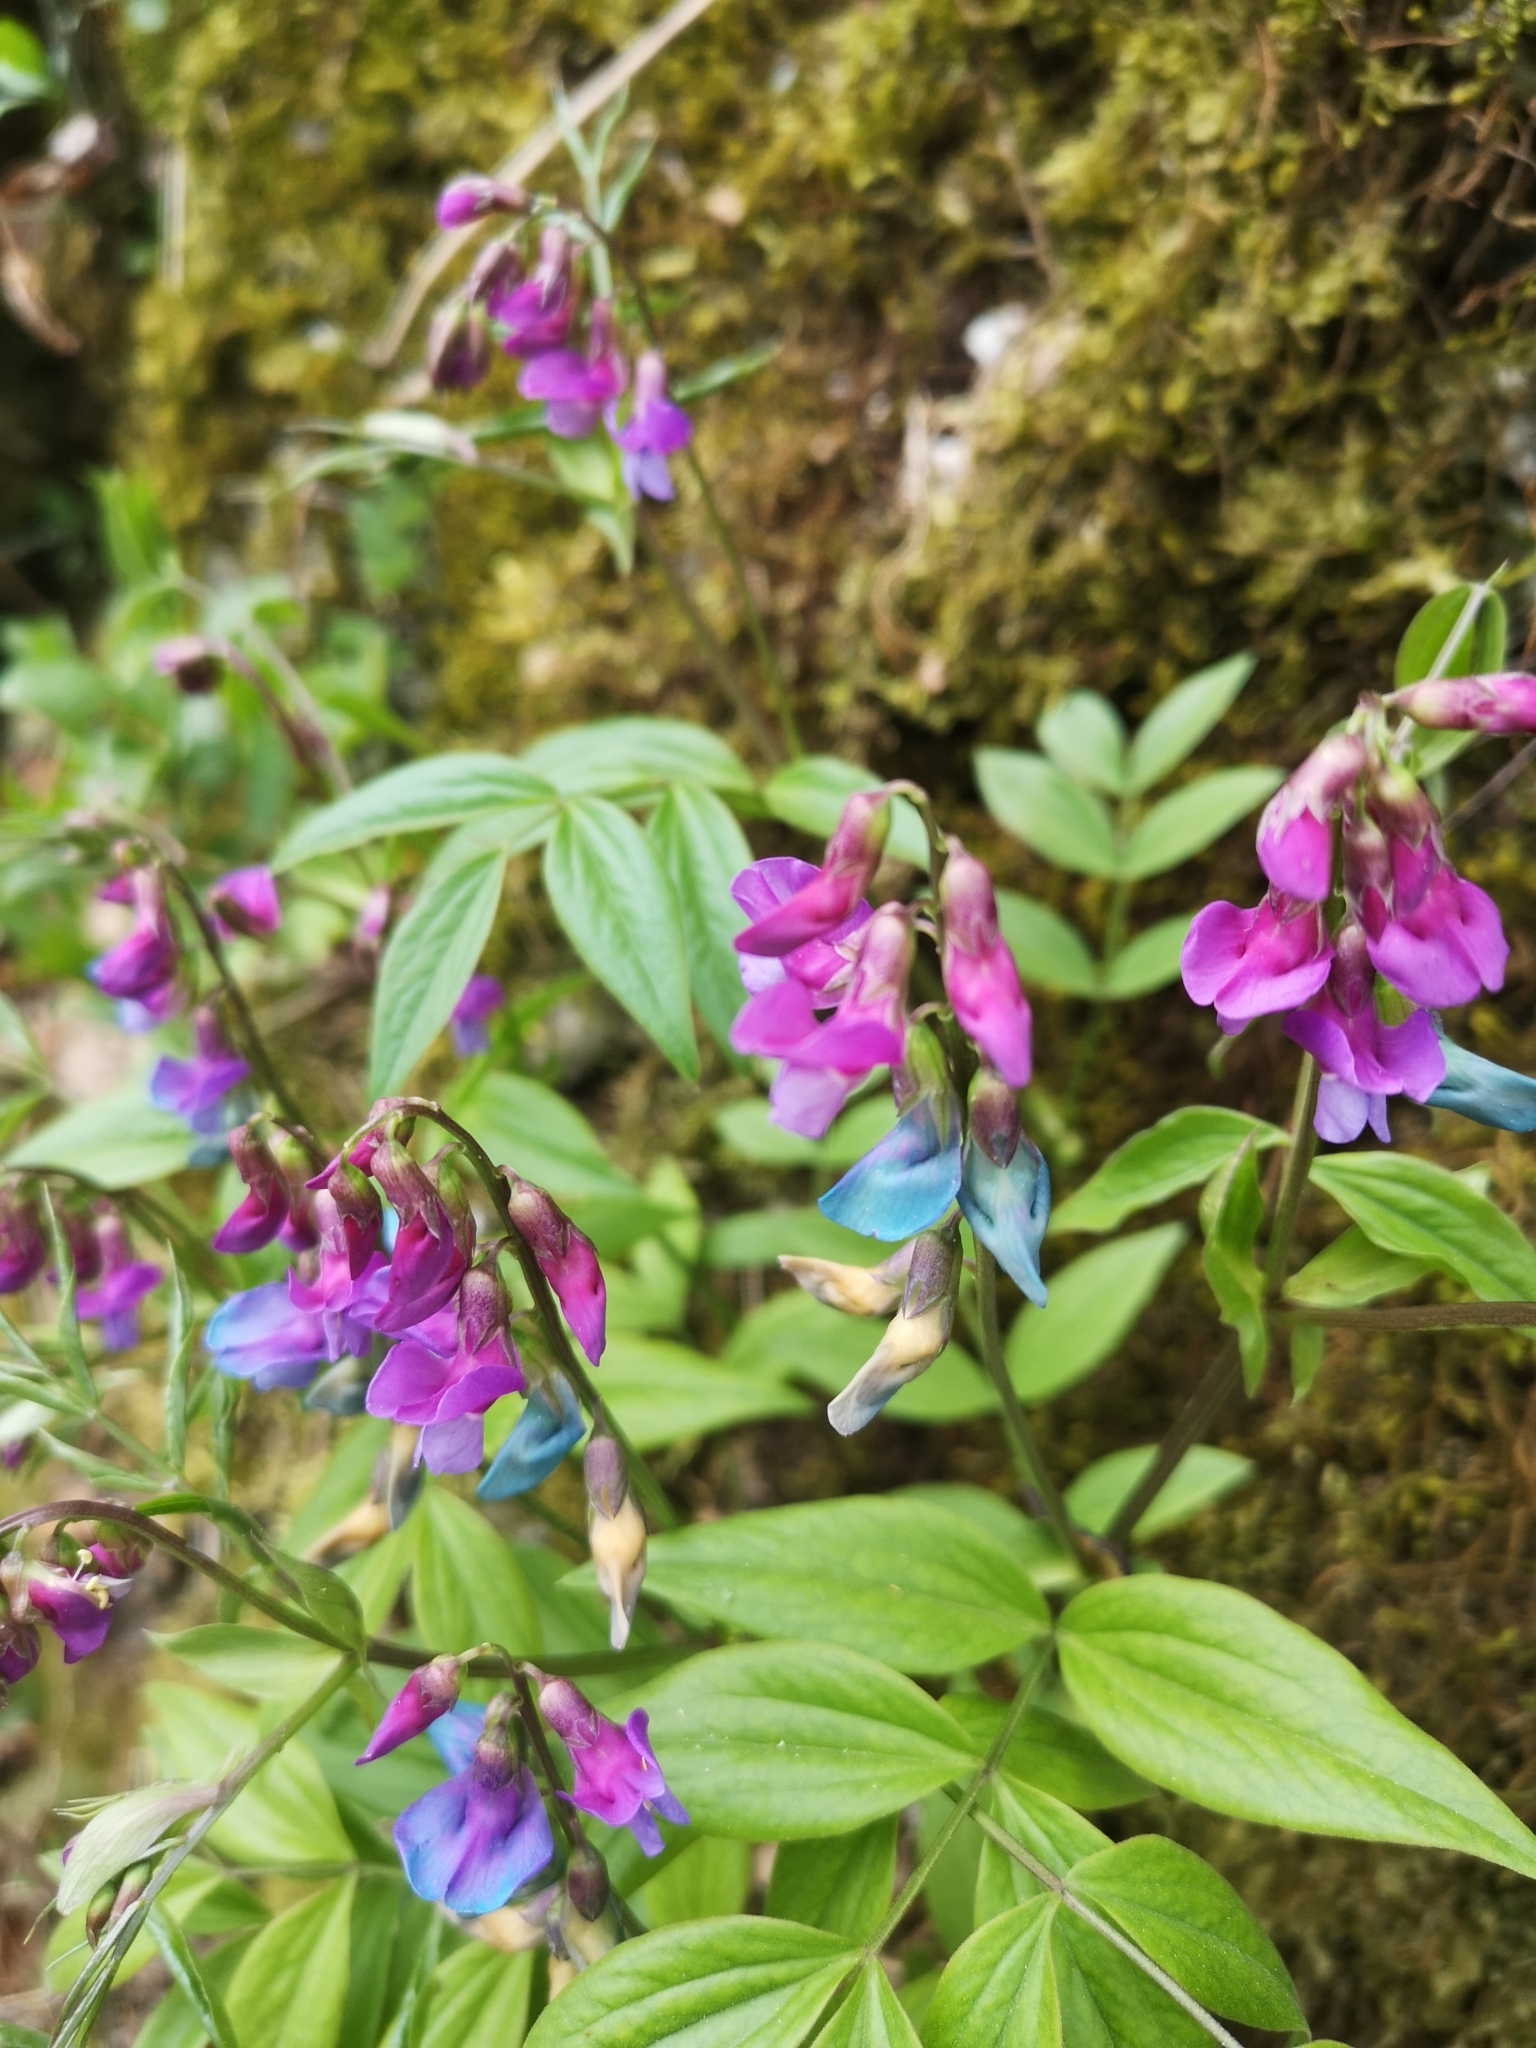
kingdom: Plantae
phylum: Tracheophyta
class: Magnoliopsida
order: Fabales
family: Fabaceae
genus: Lathyrus
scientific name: Lathyrus vernus
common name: Spring pea
